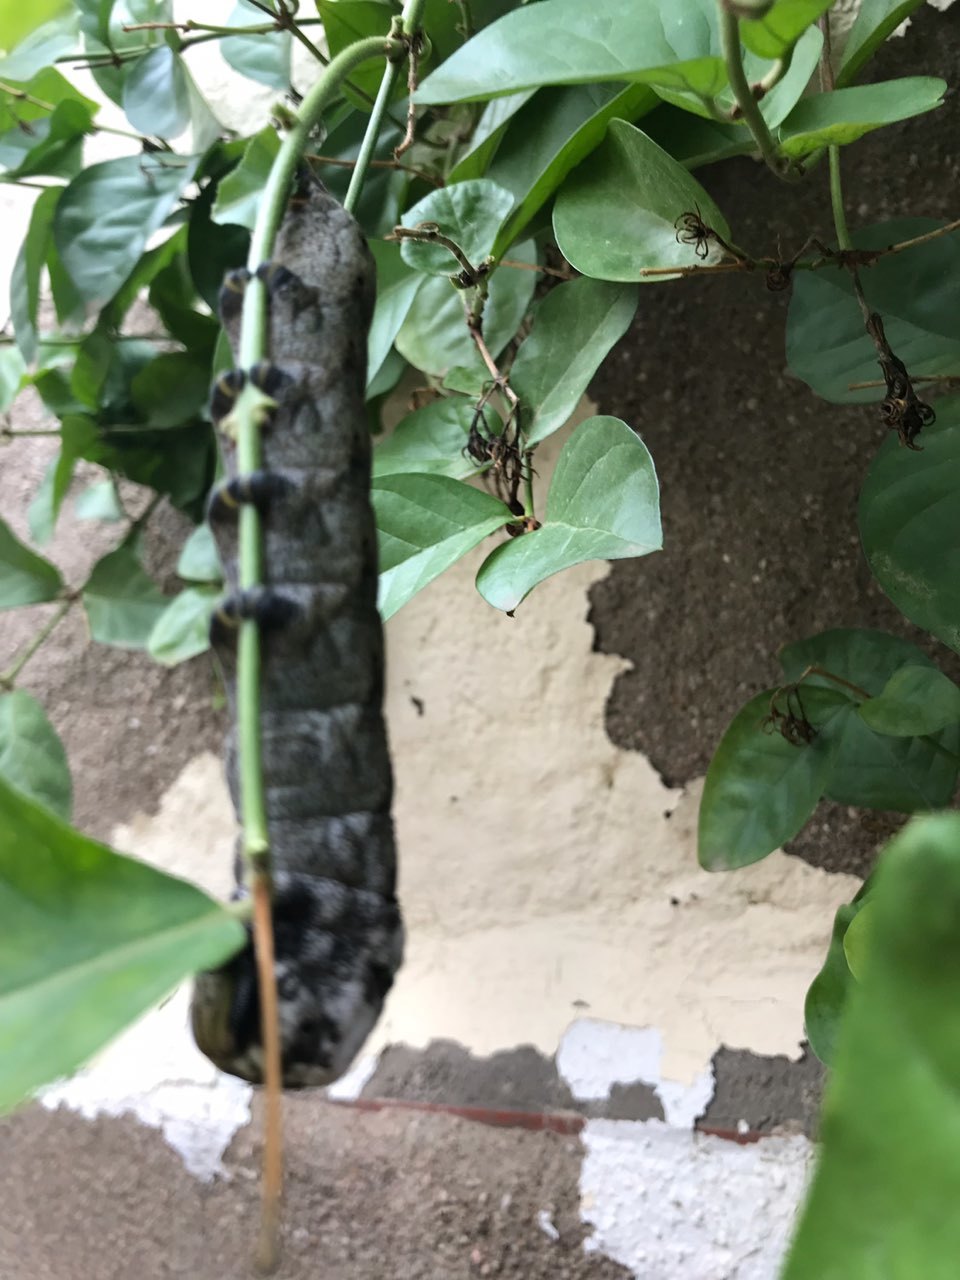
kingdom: Animalia
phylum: Arthropoda
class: Insecta
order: Lepidoptera
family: Sphingidae
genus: Acherontia
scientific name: Acherontia atropos
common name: Death's-head hawk moth
